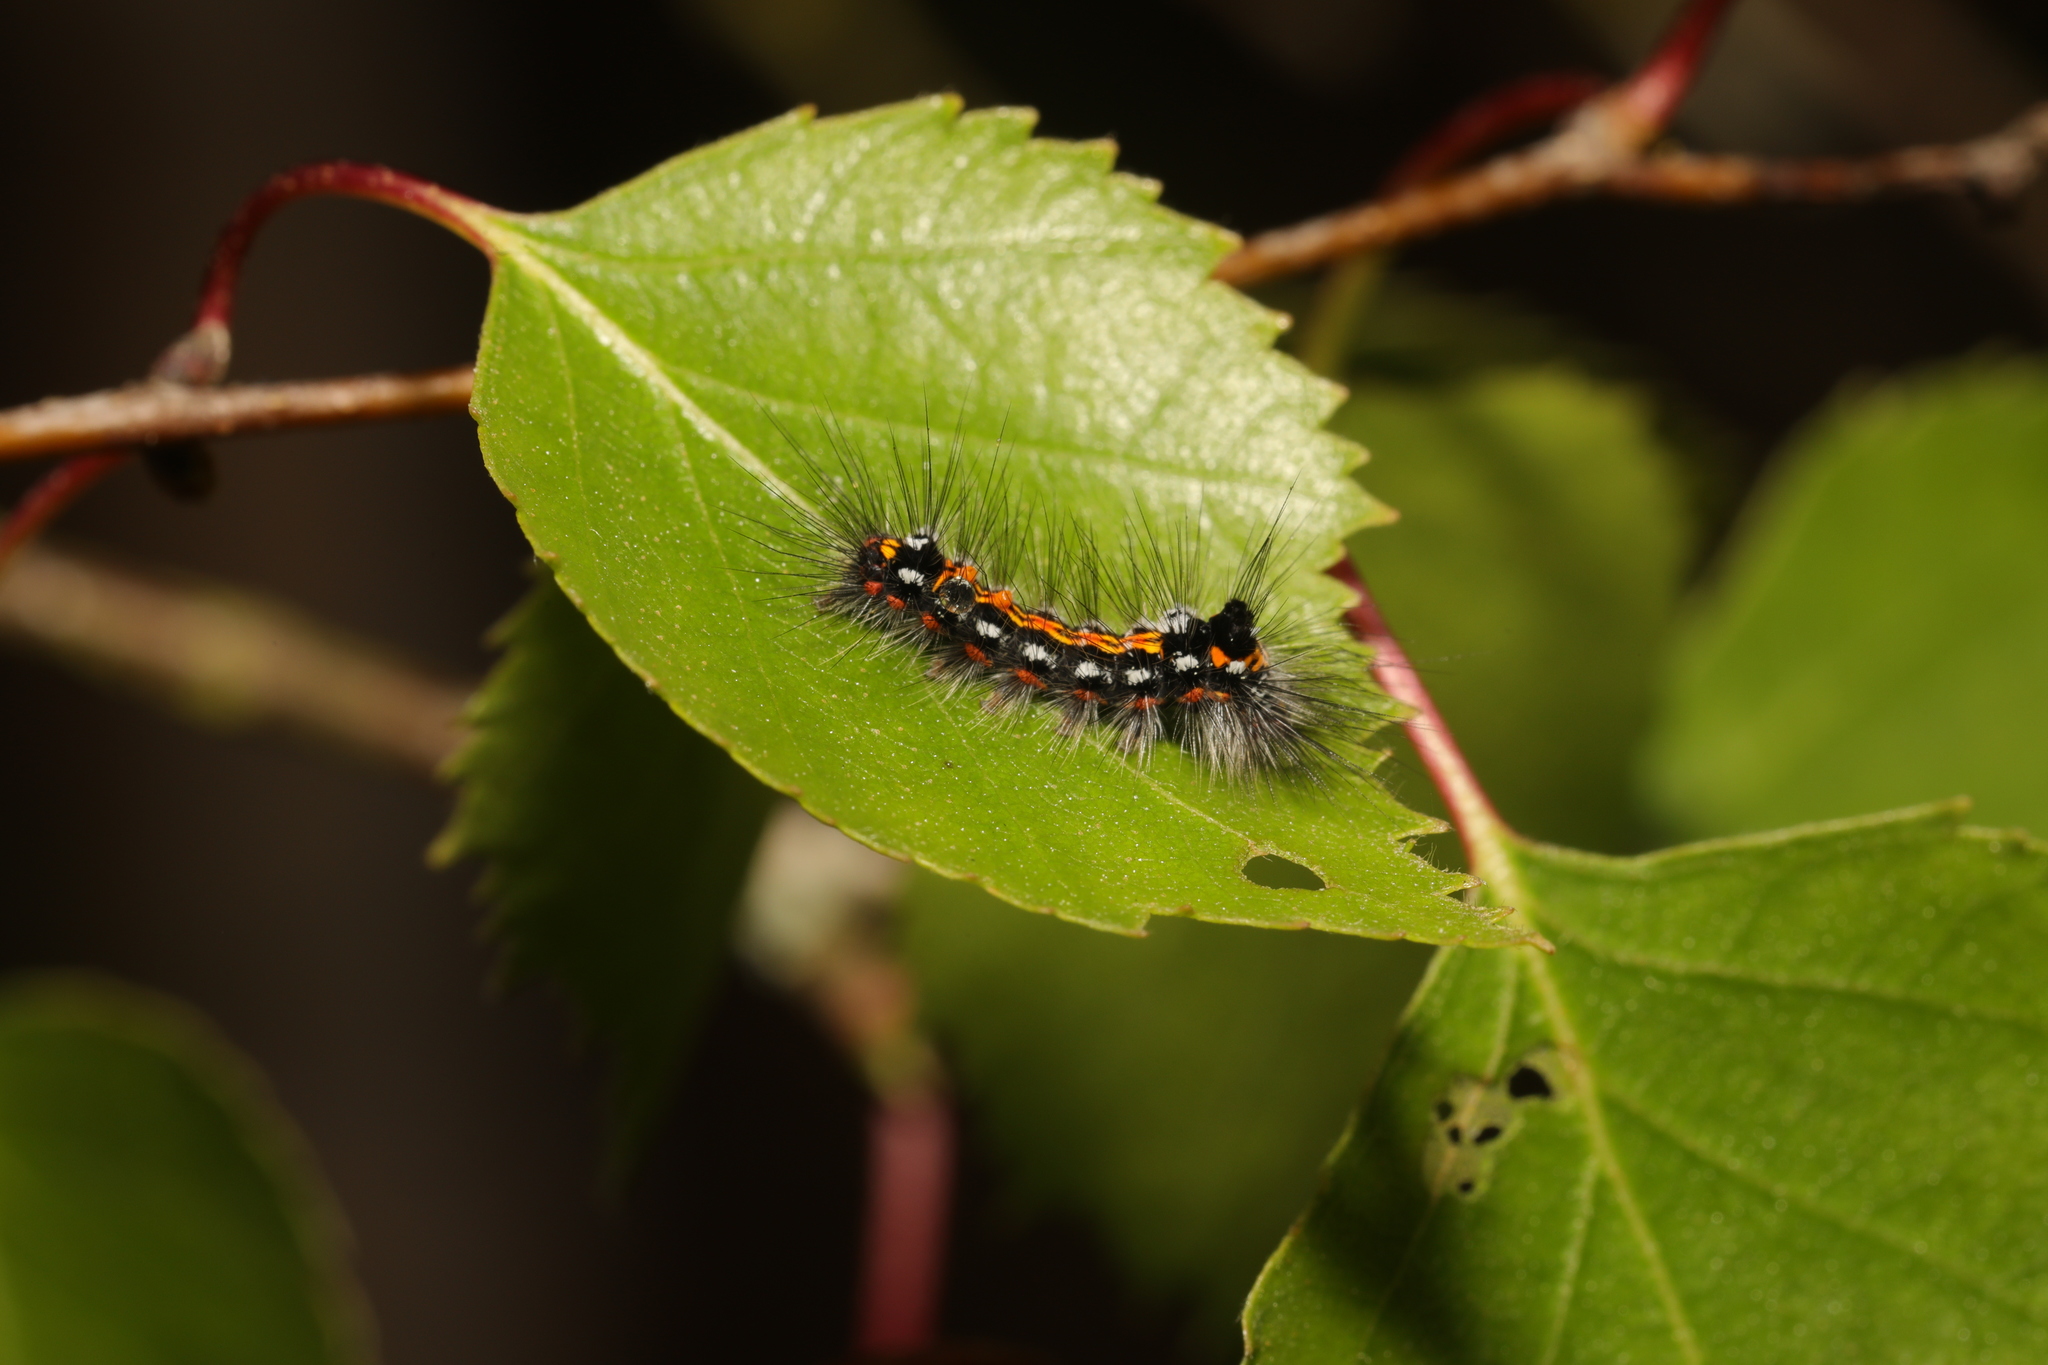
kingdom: Animalia
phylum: Arthropoda
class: Insecta
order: Lepidoptera
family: Erebidae
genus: Sphrageidus
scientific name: Sphrageidus similis
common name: Yellow-tail
